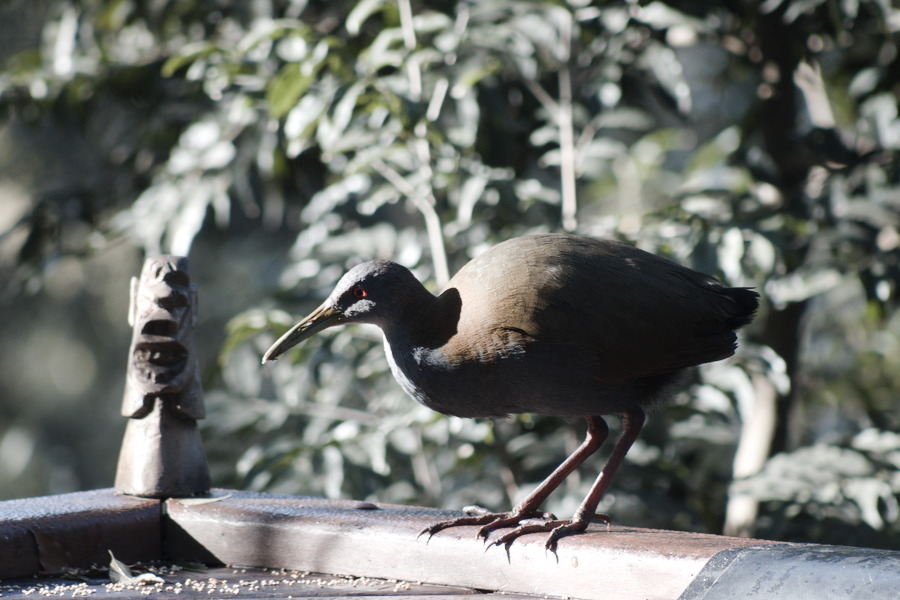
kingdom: Animalia
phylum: Chordata
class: Aves
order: Gruiformes
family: Rallidae
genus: Aramides
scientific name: Aramides saracura
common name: Slaty-breasted wood rail
